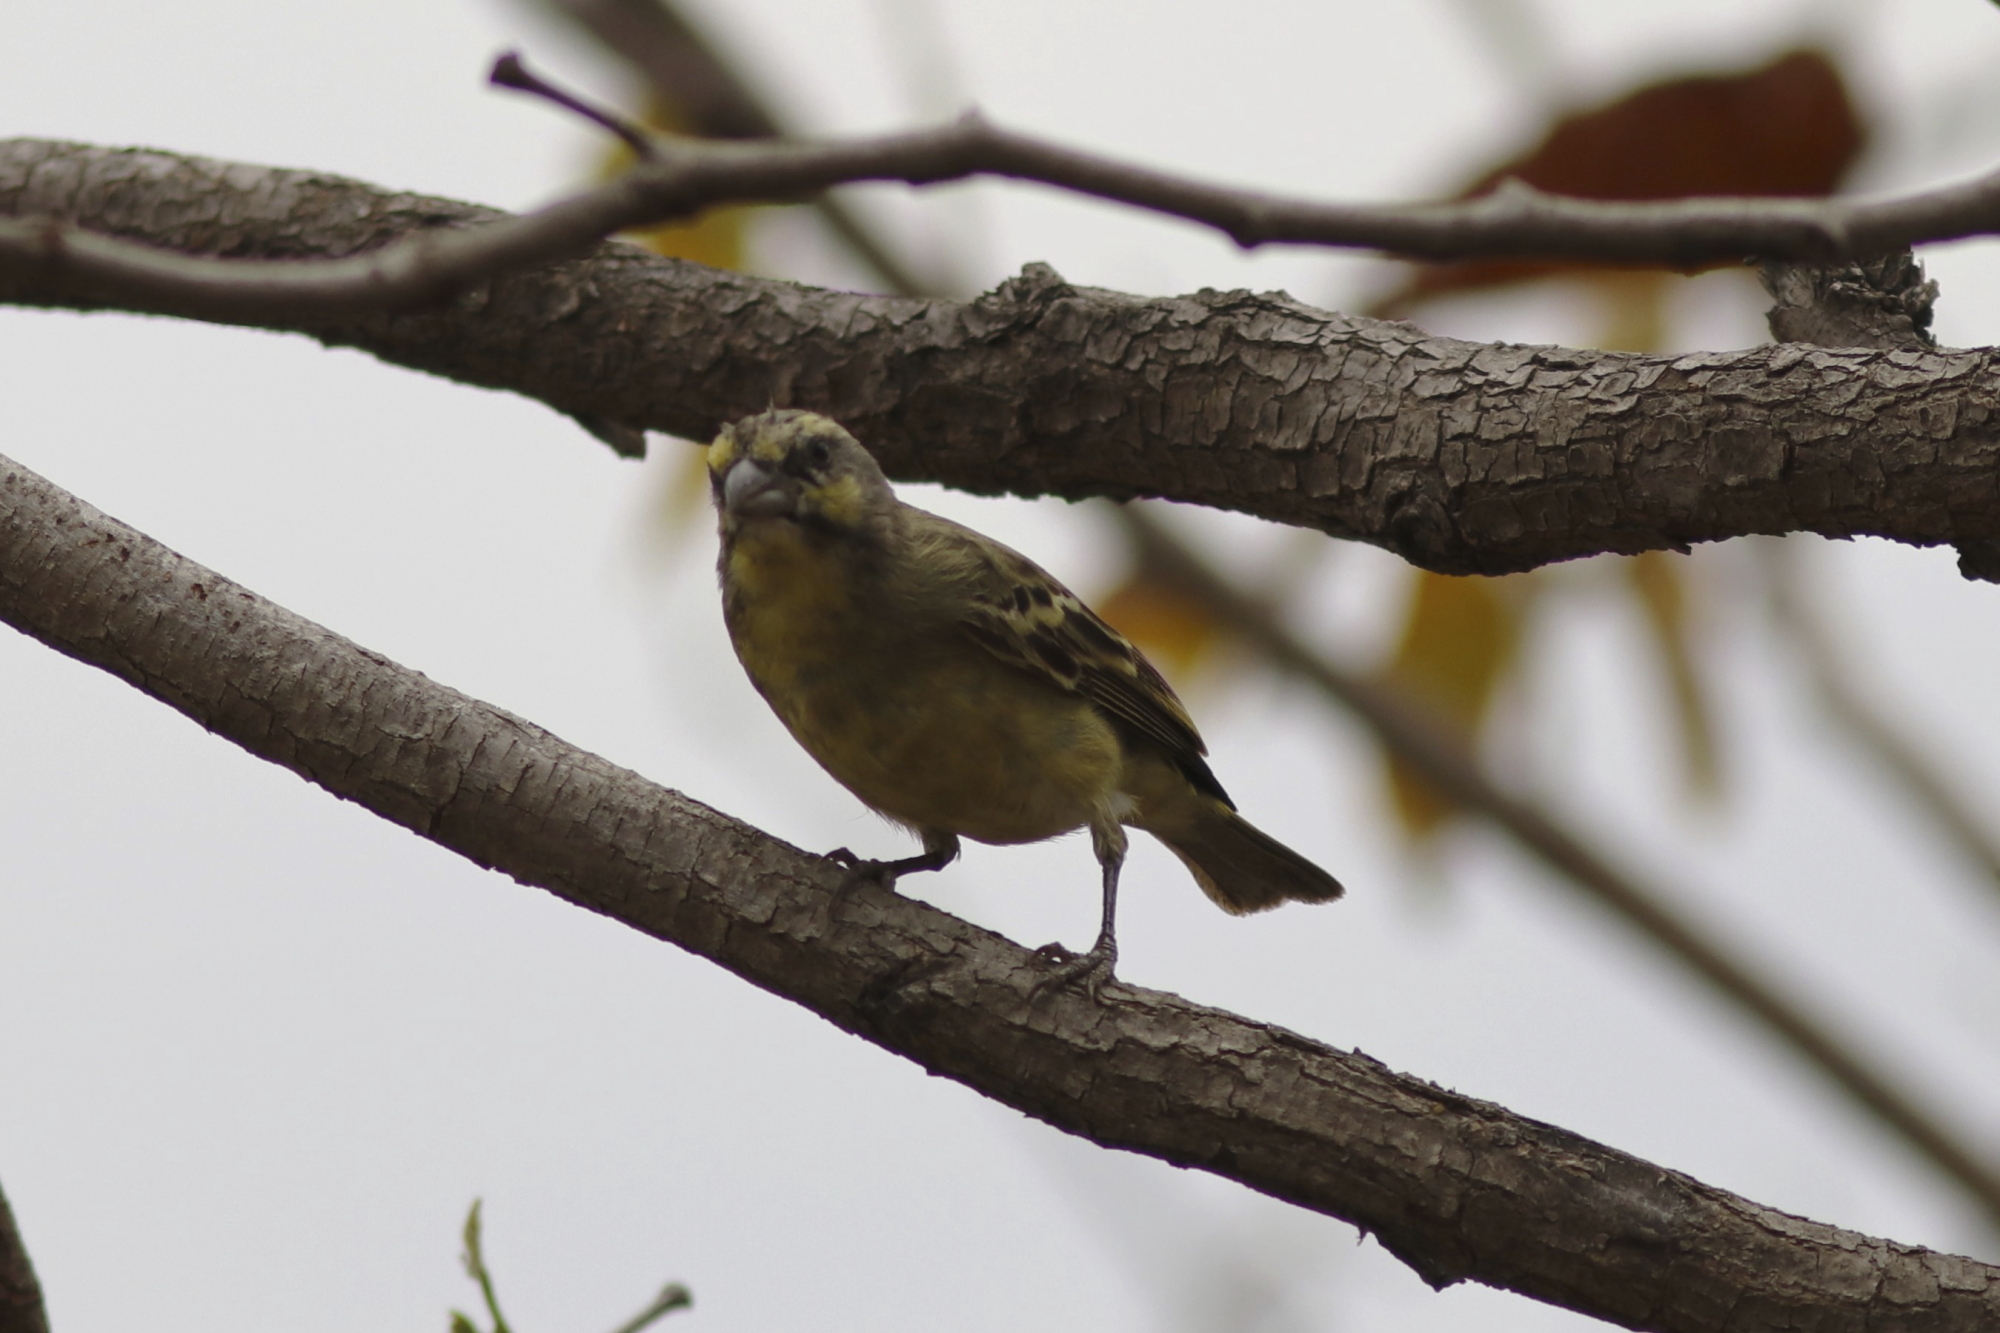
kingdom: Animalia
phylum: Chordata
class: Aves
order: Passeriformes
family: Fringillidae
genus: Crithagra
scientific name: Crithagra mozambica
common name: Yellow-fronted canary
